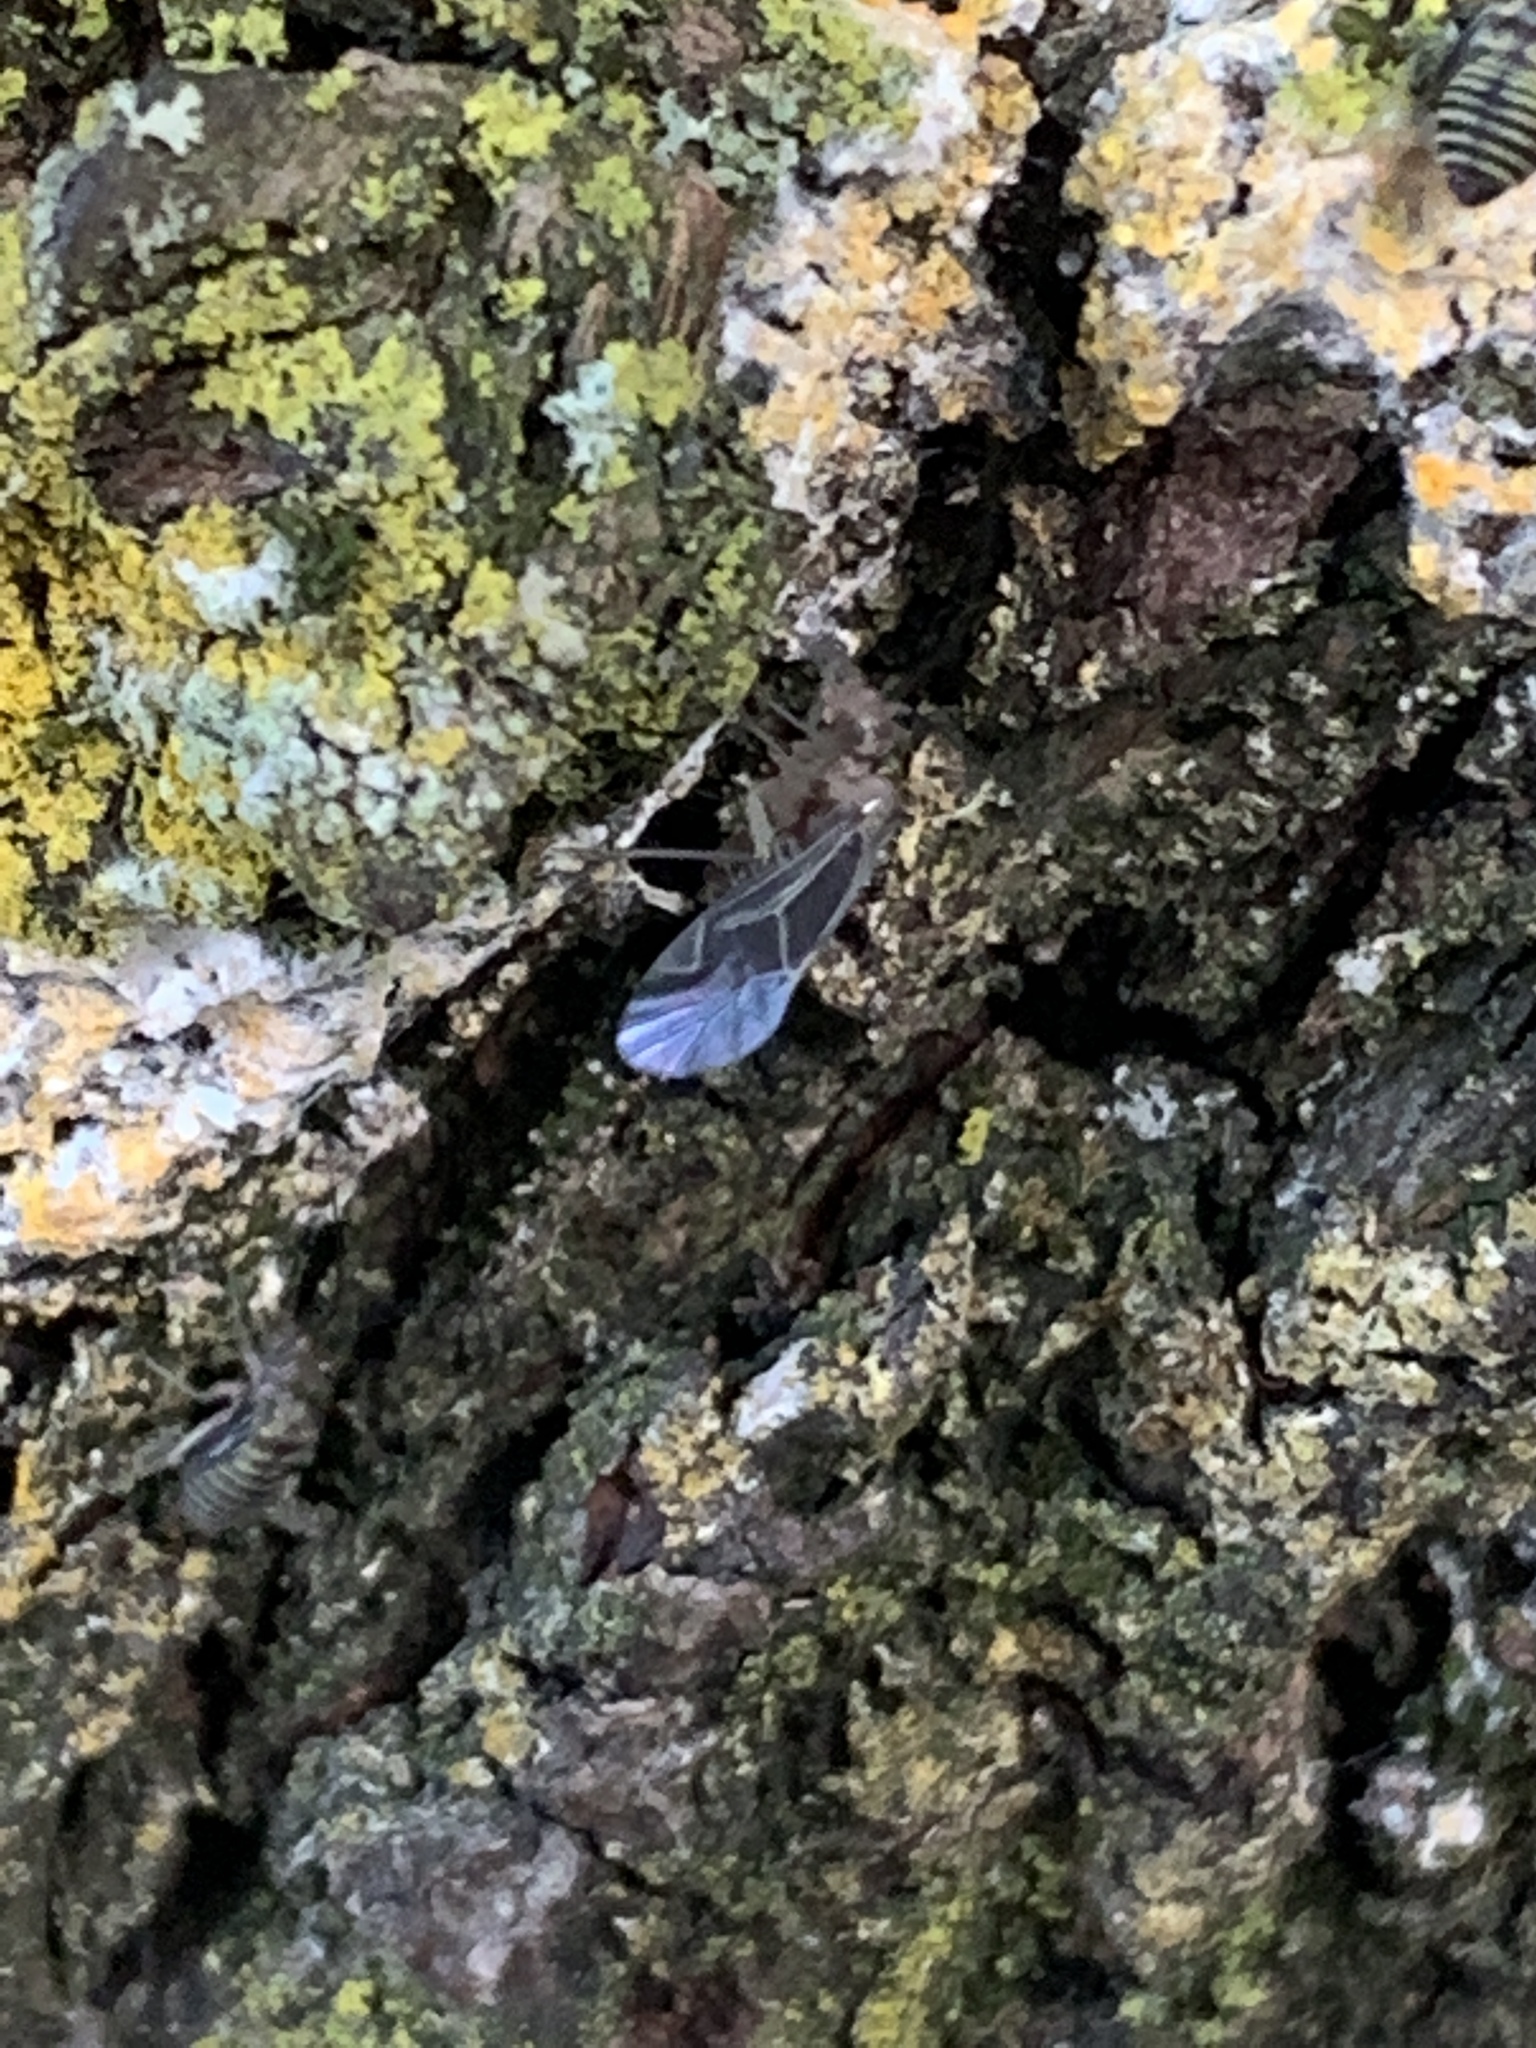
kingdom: Animalia
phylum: Arthropoda
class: Insecta
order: Psocodea
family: Psocidae
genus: Cerastipsocus
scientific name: Cerastipsocus venosus
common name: Tree cattle
